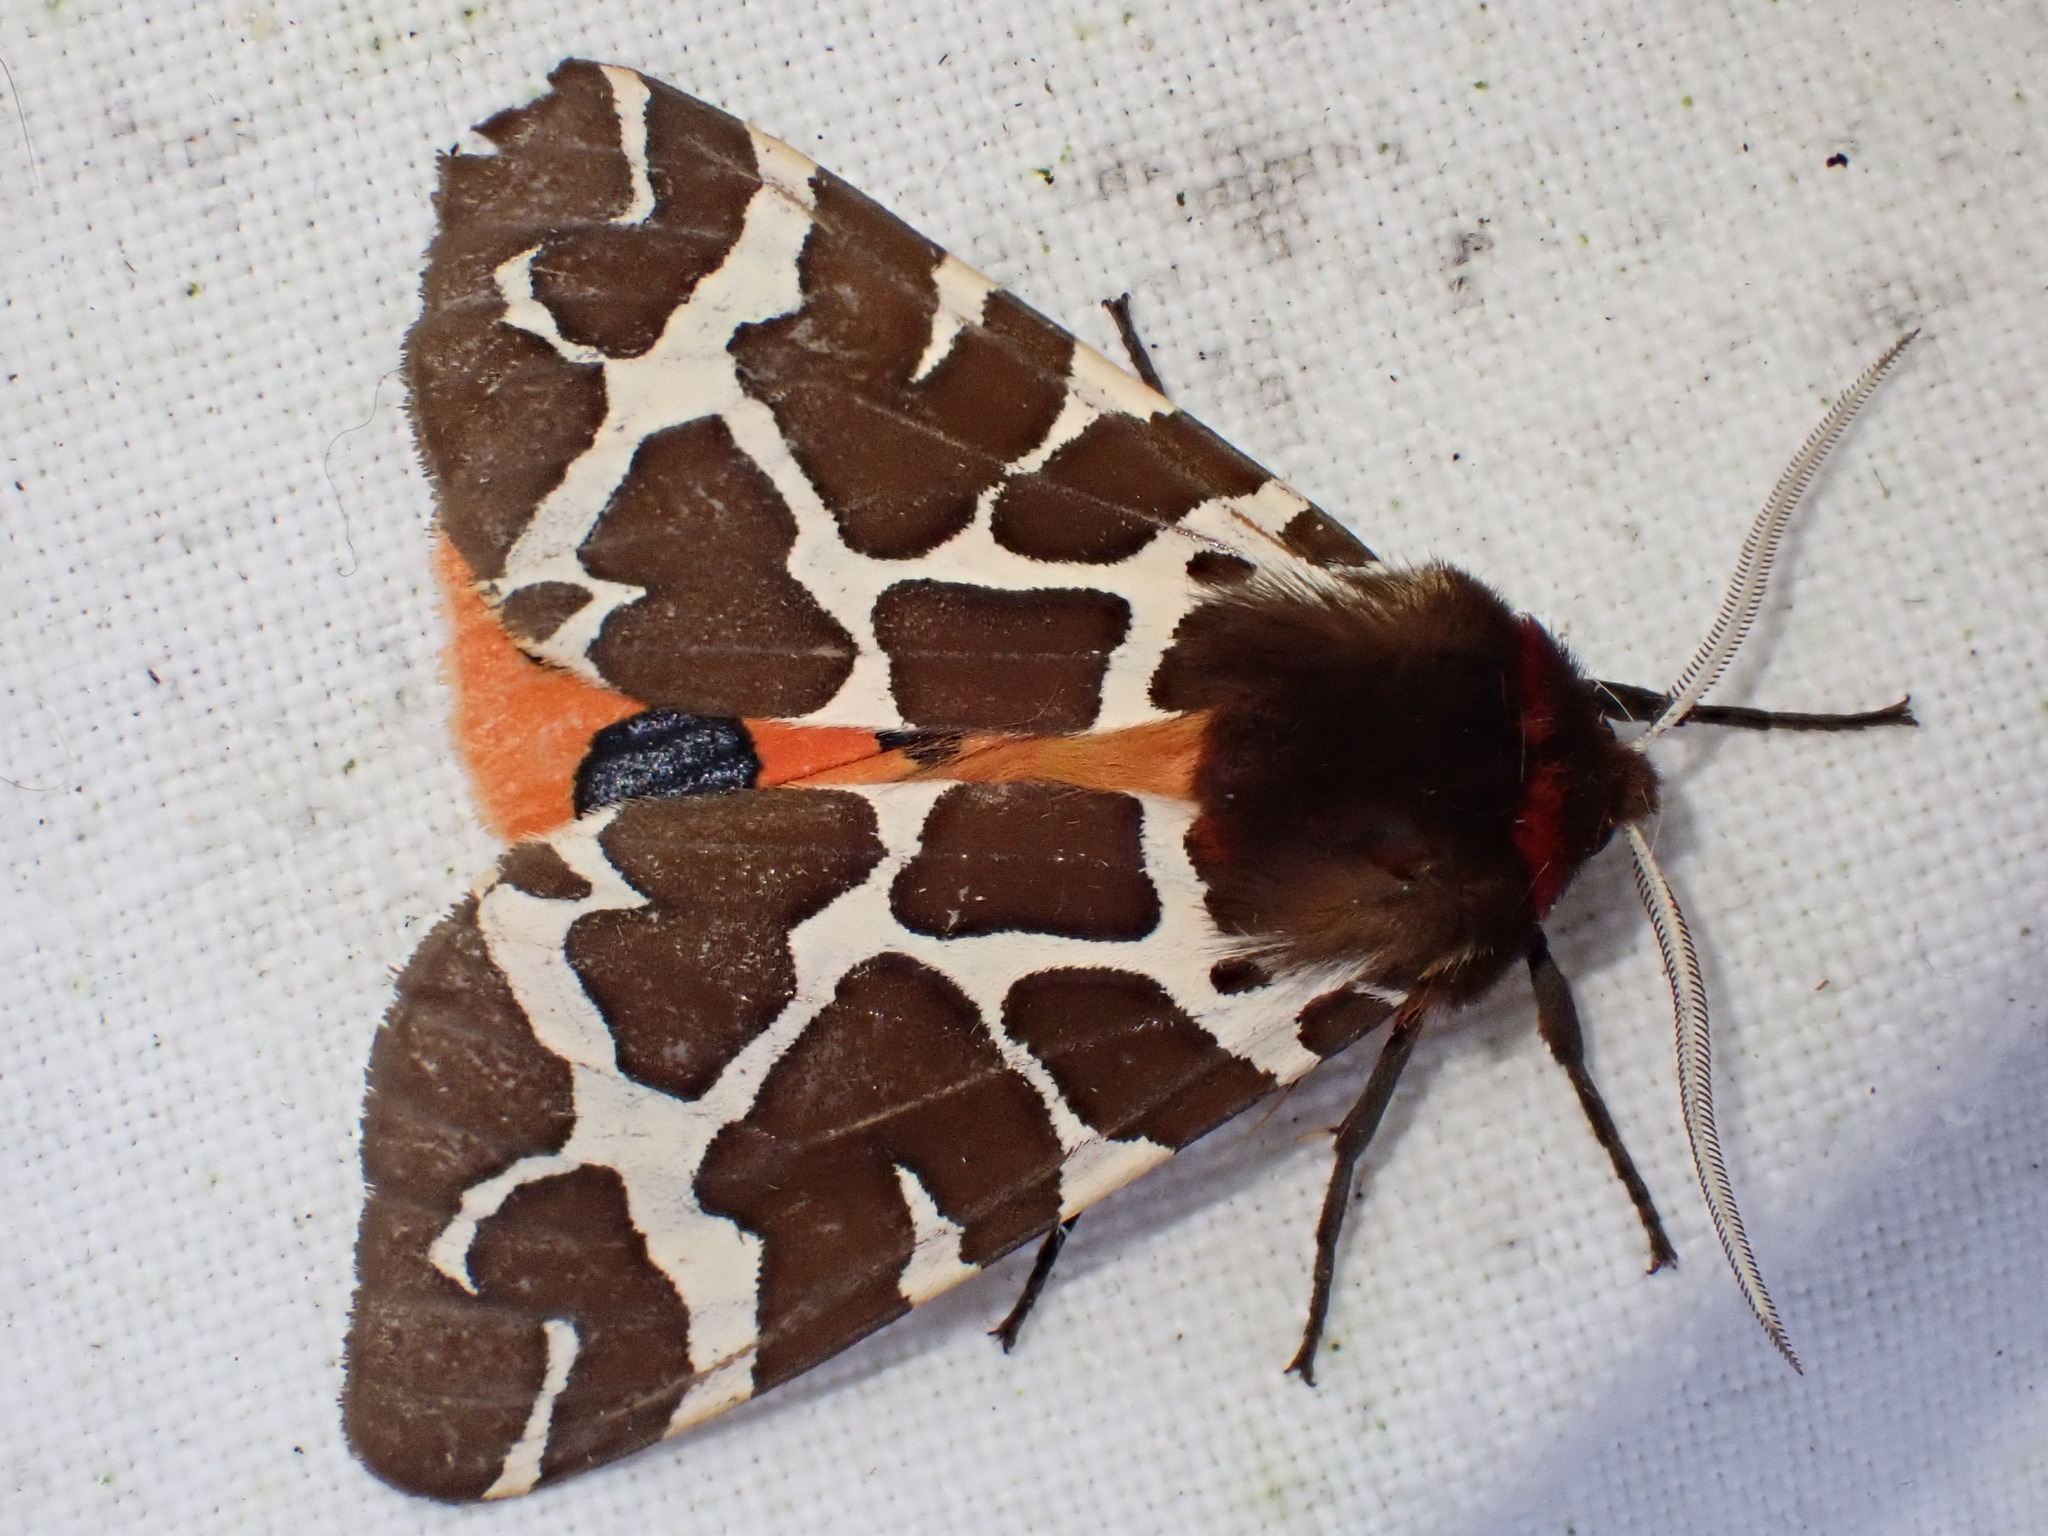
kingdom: Animalia
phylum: Arthropoda
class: Insecta
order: Lepidoptera
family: Erebidae
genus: Arctia
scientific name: Arctia caja
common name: Garden tiger
